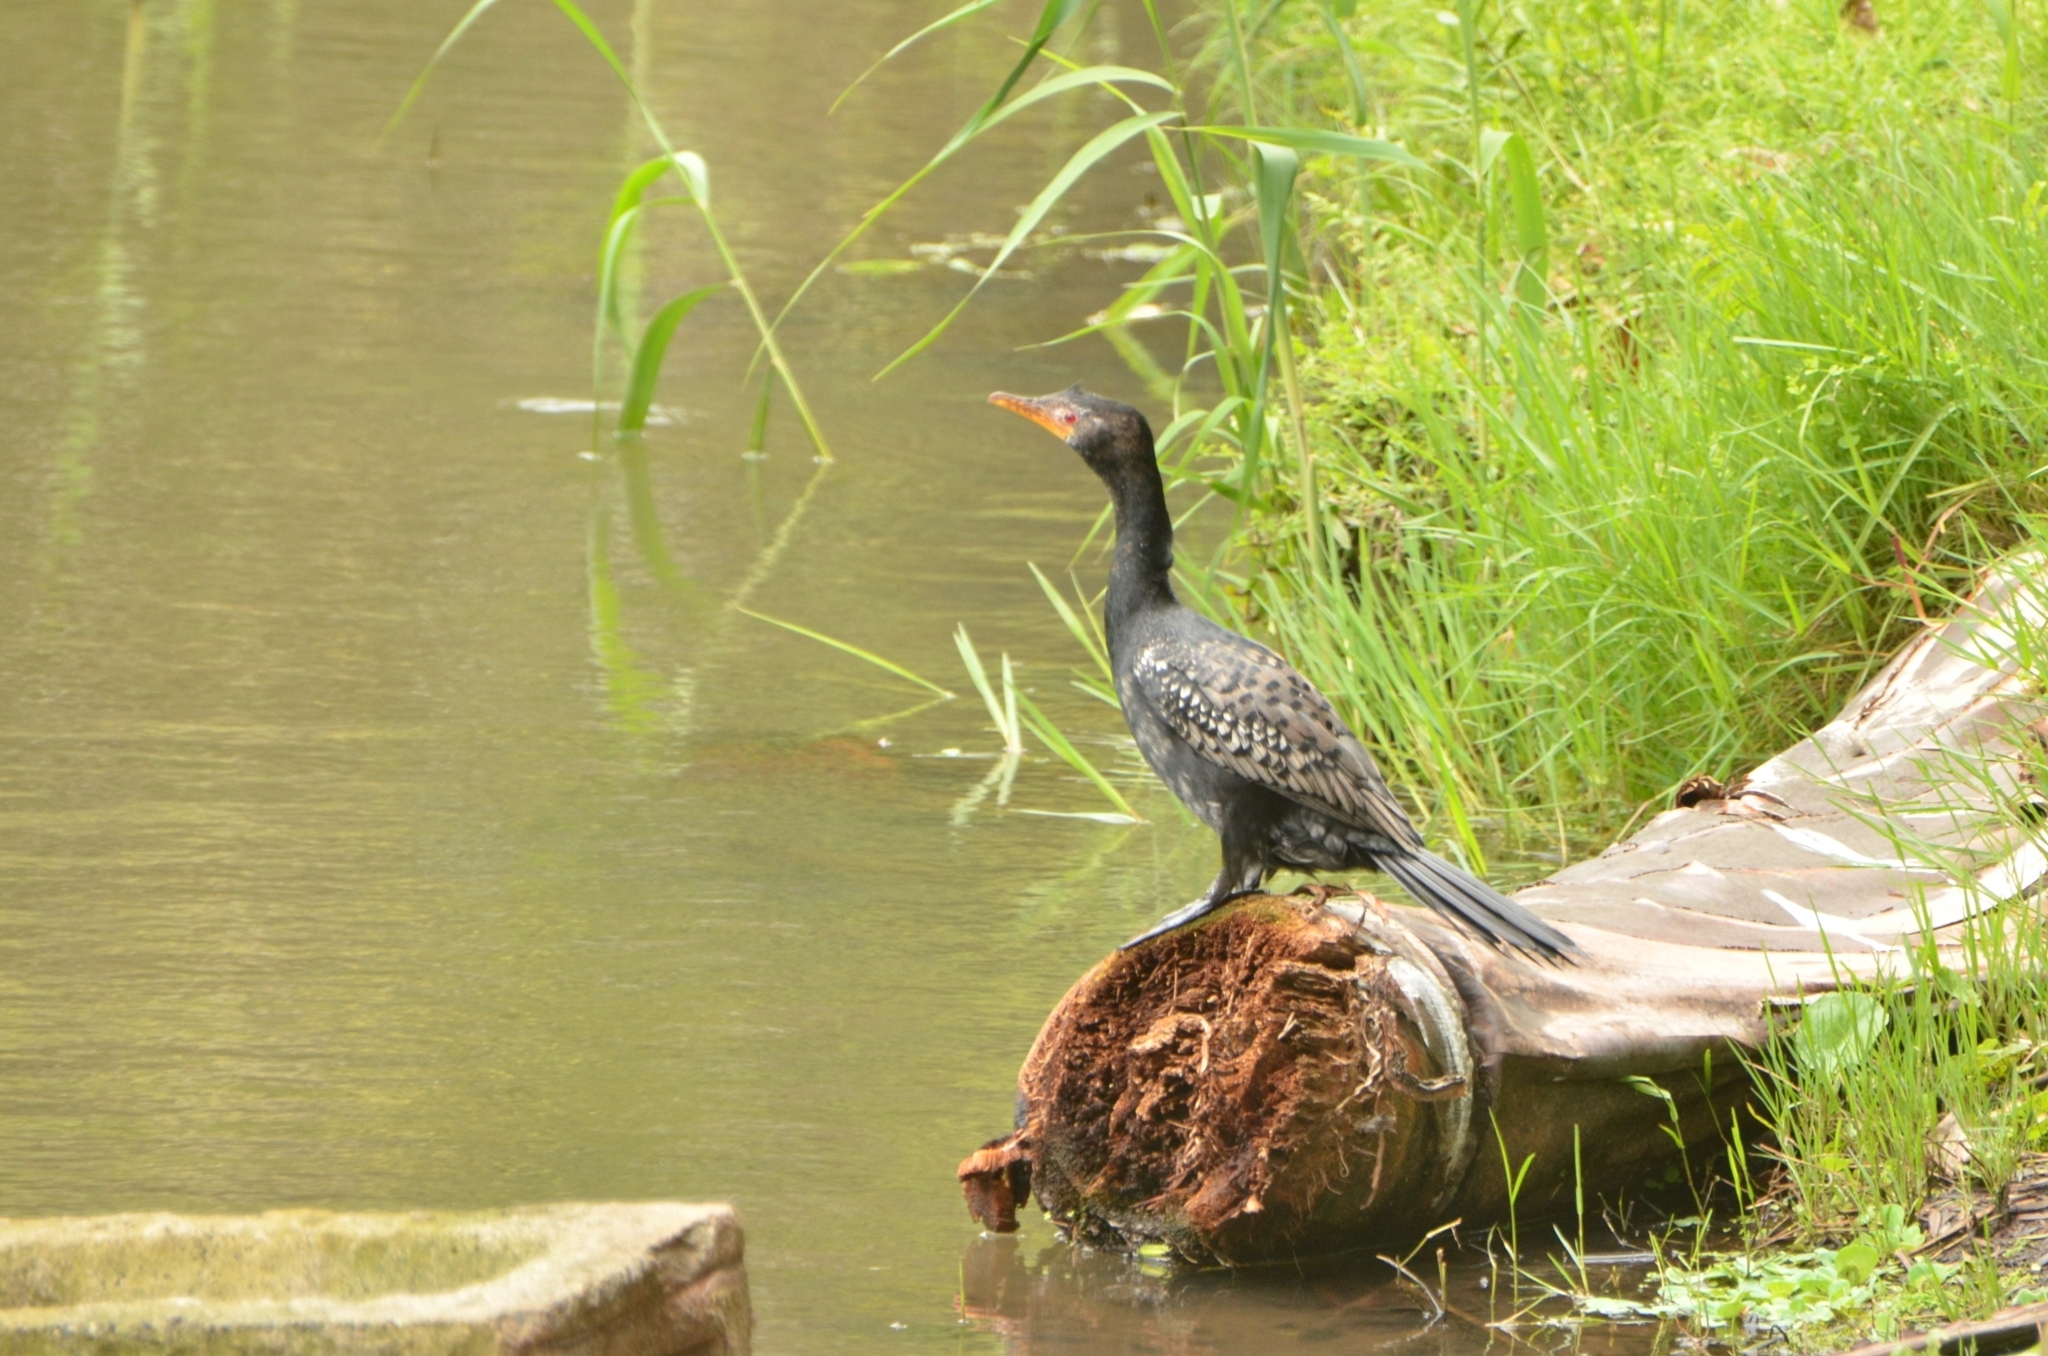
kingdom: Animalia
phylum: Chordata
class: Aves
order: Suliformes
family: Phalacrocoracidae
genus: Microcarbo
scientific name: Microcarbo africanus
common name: Long-tailed cormorant
